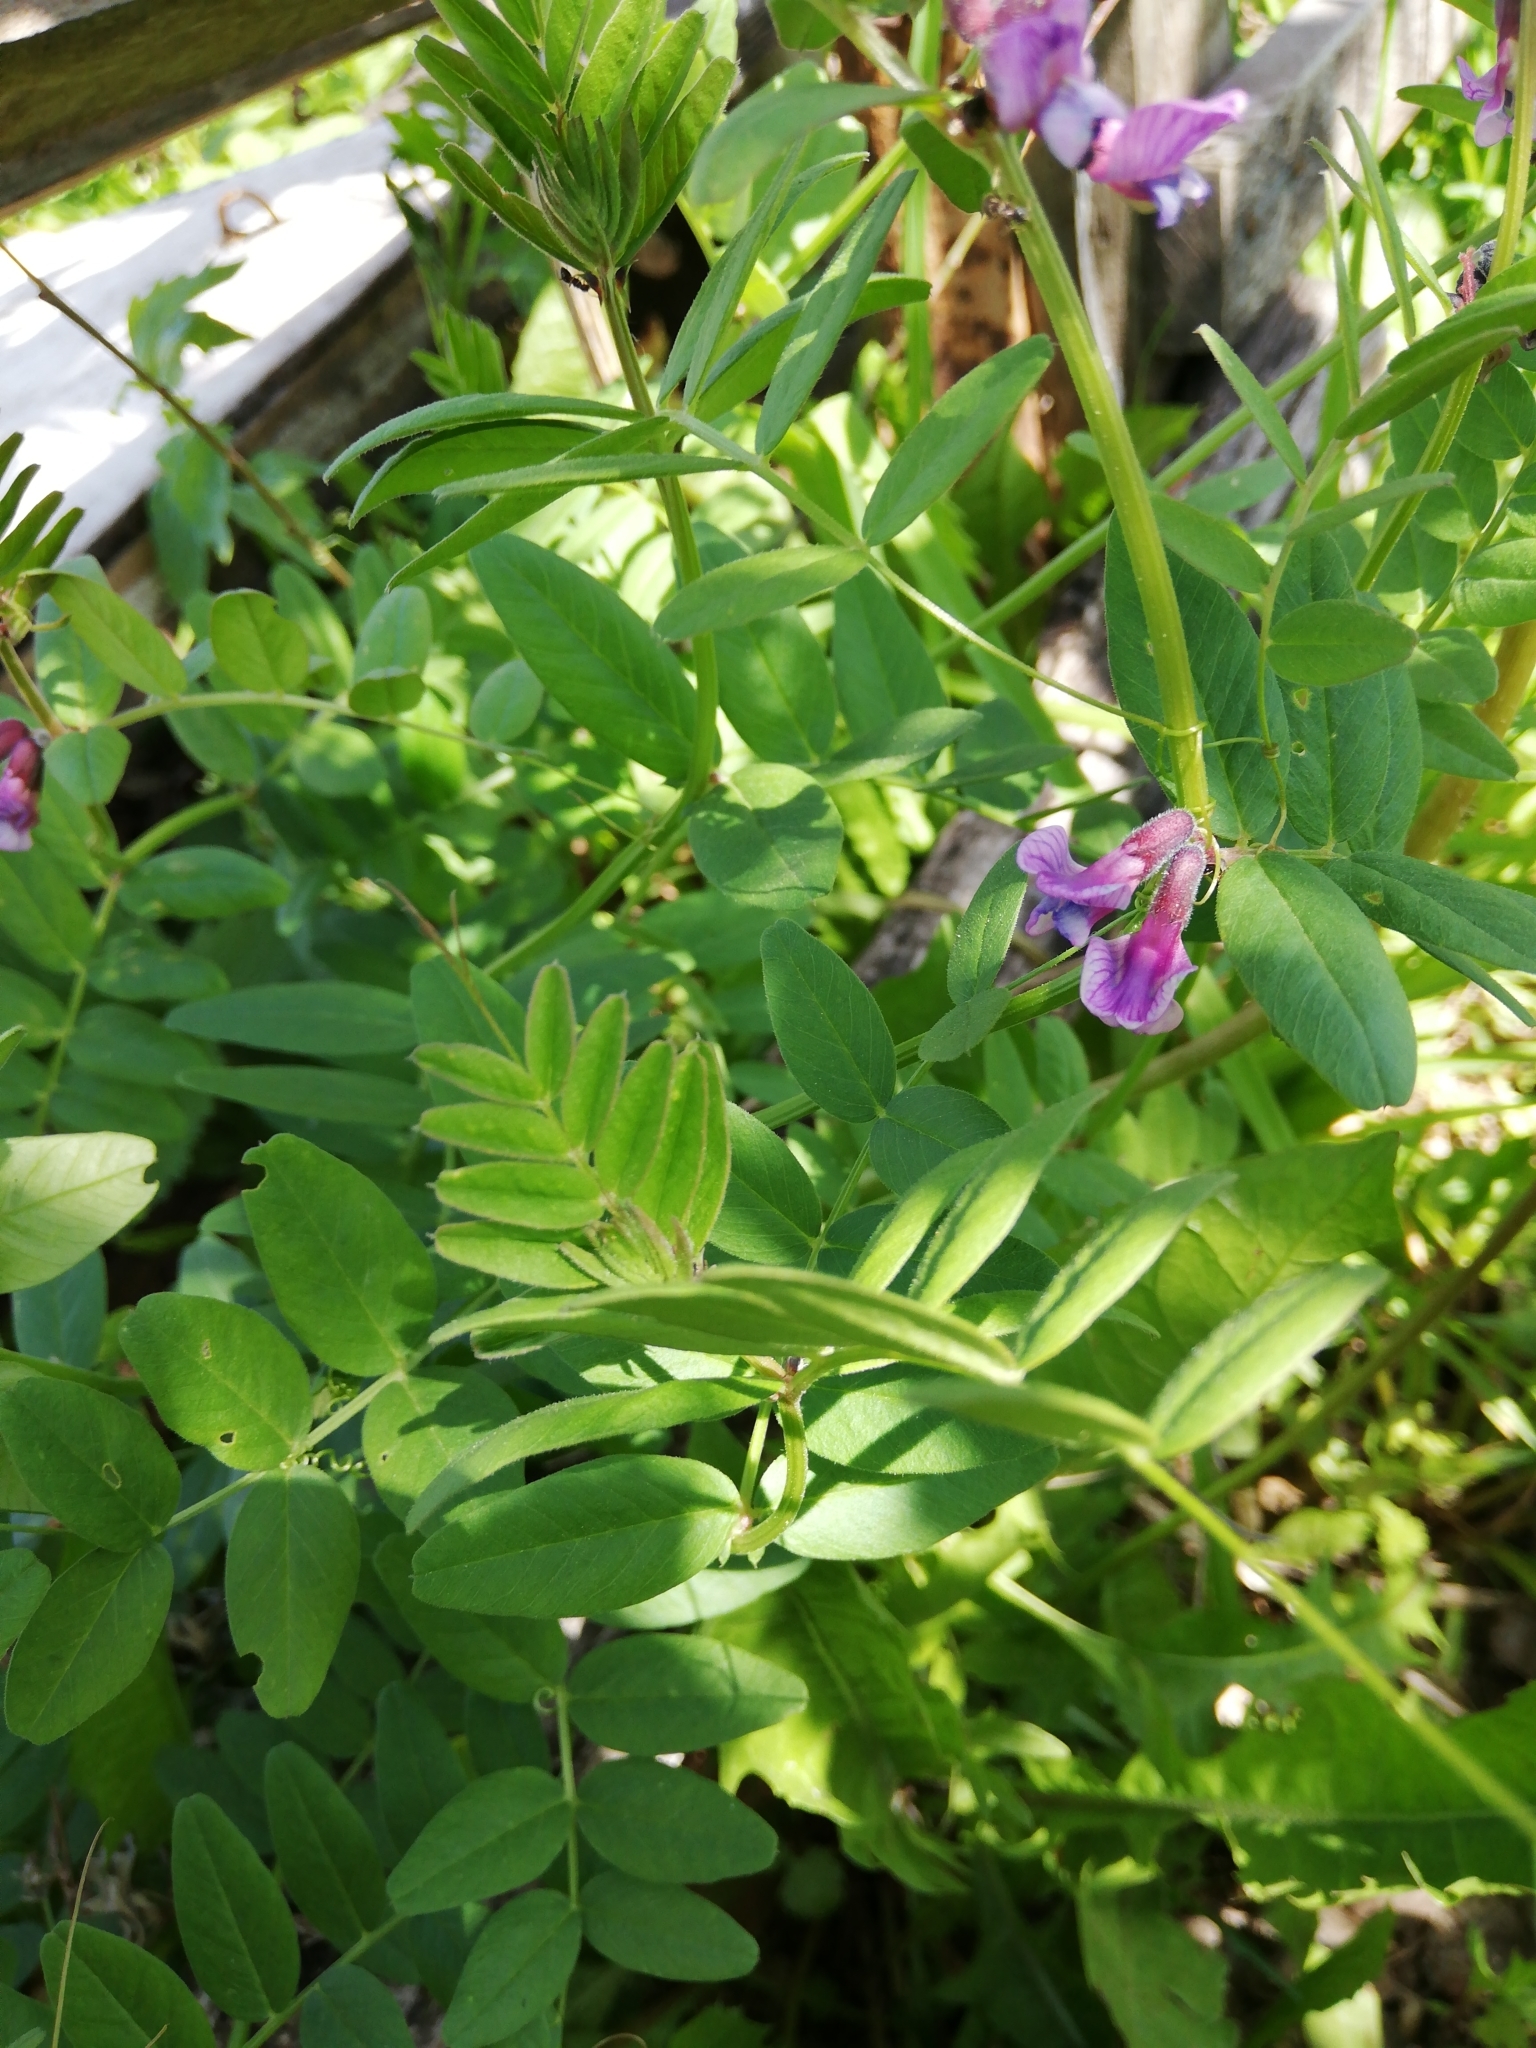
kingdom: Plantae
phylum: Tracheophyta
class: Magnoliopsida
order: Fabales
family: Fabaceae
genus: Vicia
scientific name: Vicia sepium
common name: Bush vetch
